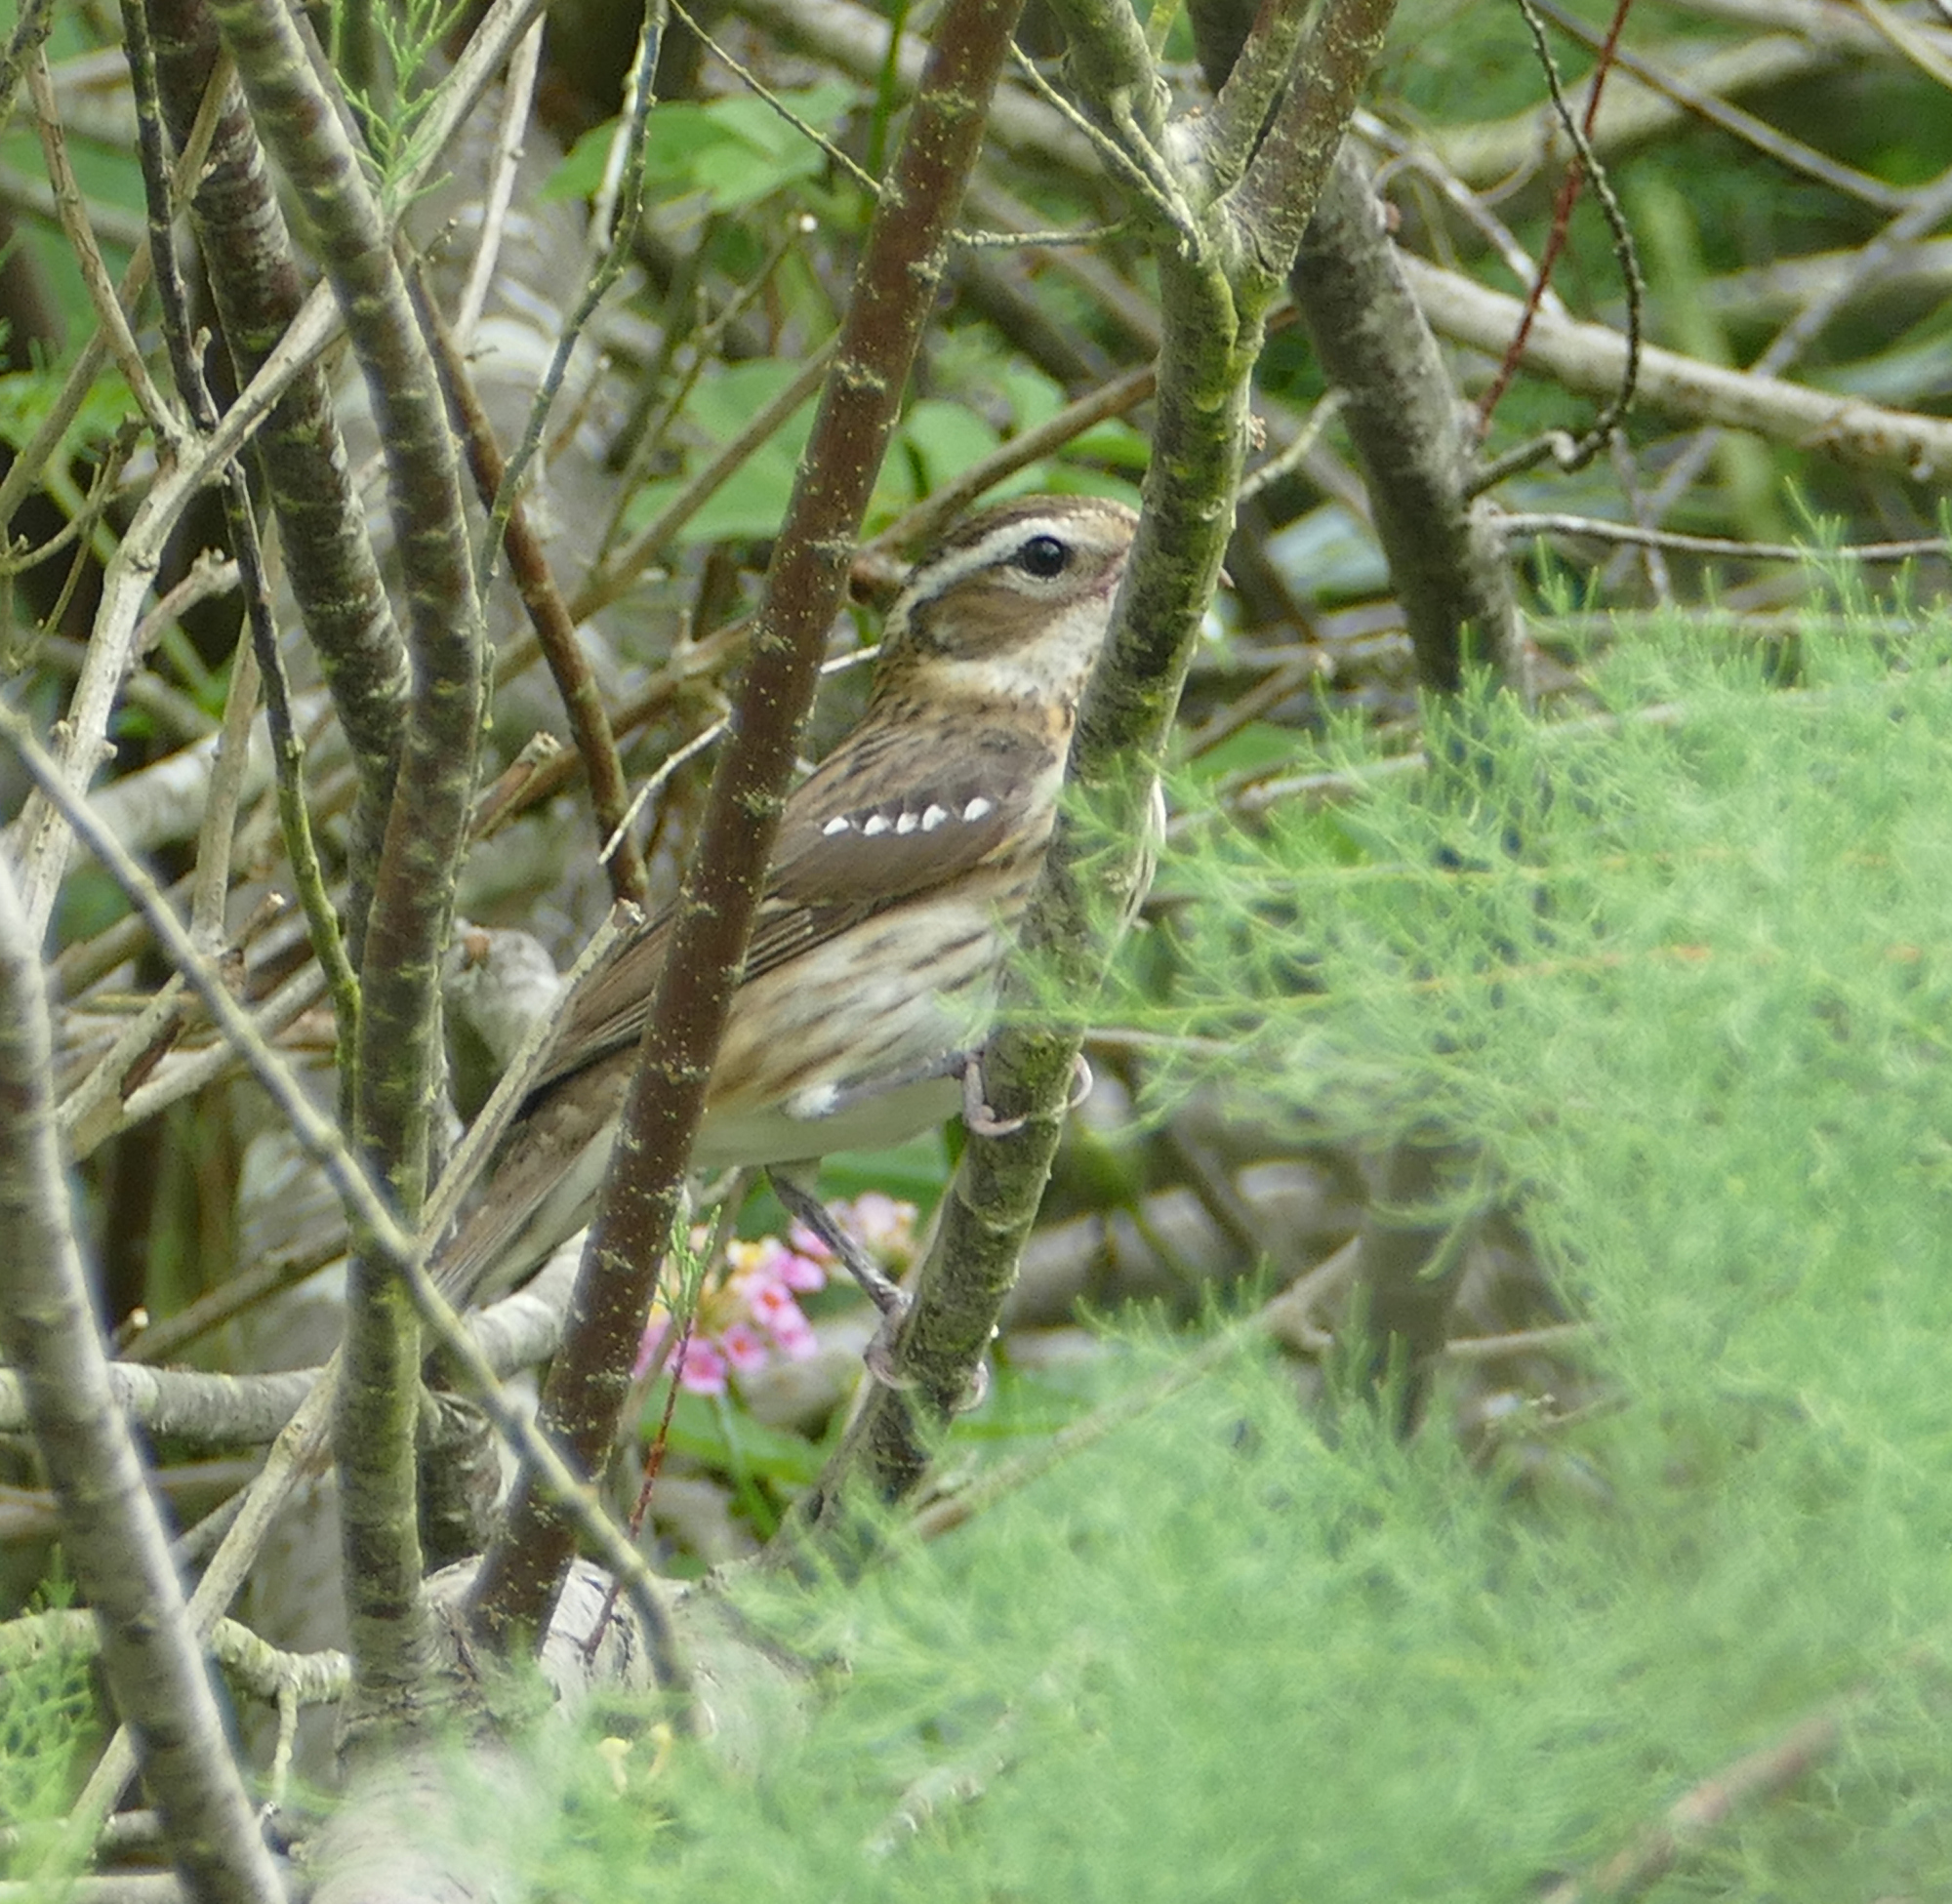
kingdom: Animalia
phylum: Chordata
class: Aves
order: Passeriformes
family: Cardinalidae
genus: Pheucticus
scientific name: Pheucticus ludovicianus
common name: Rose-breasted grosbeak
